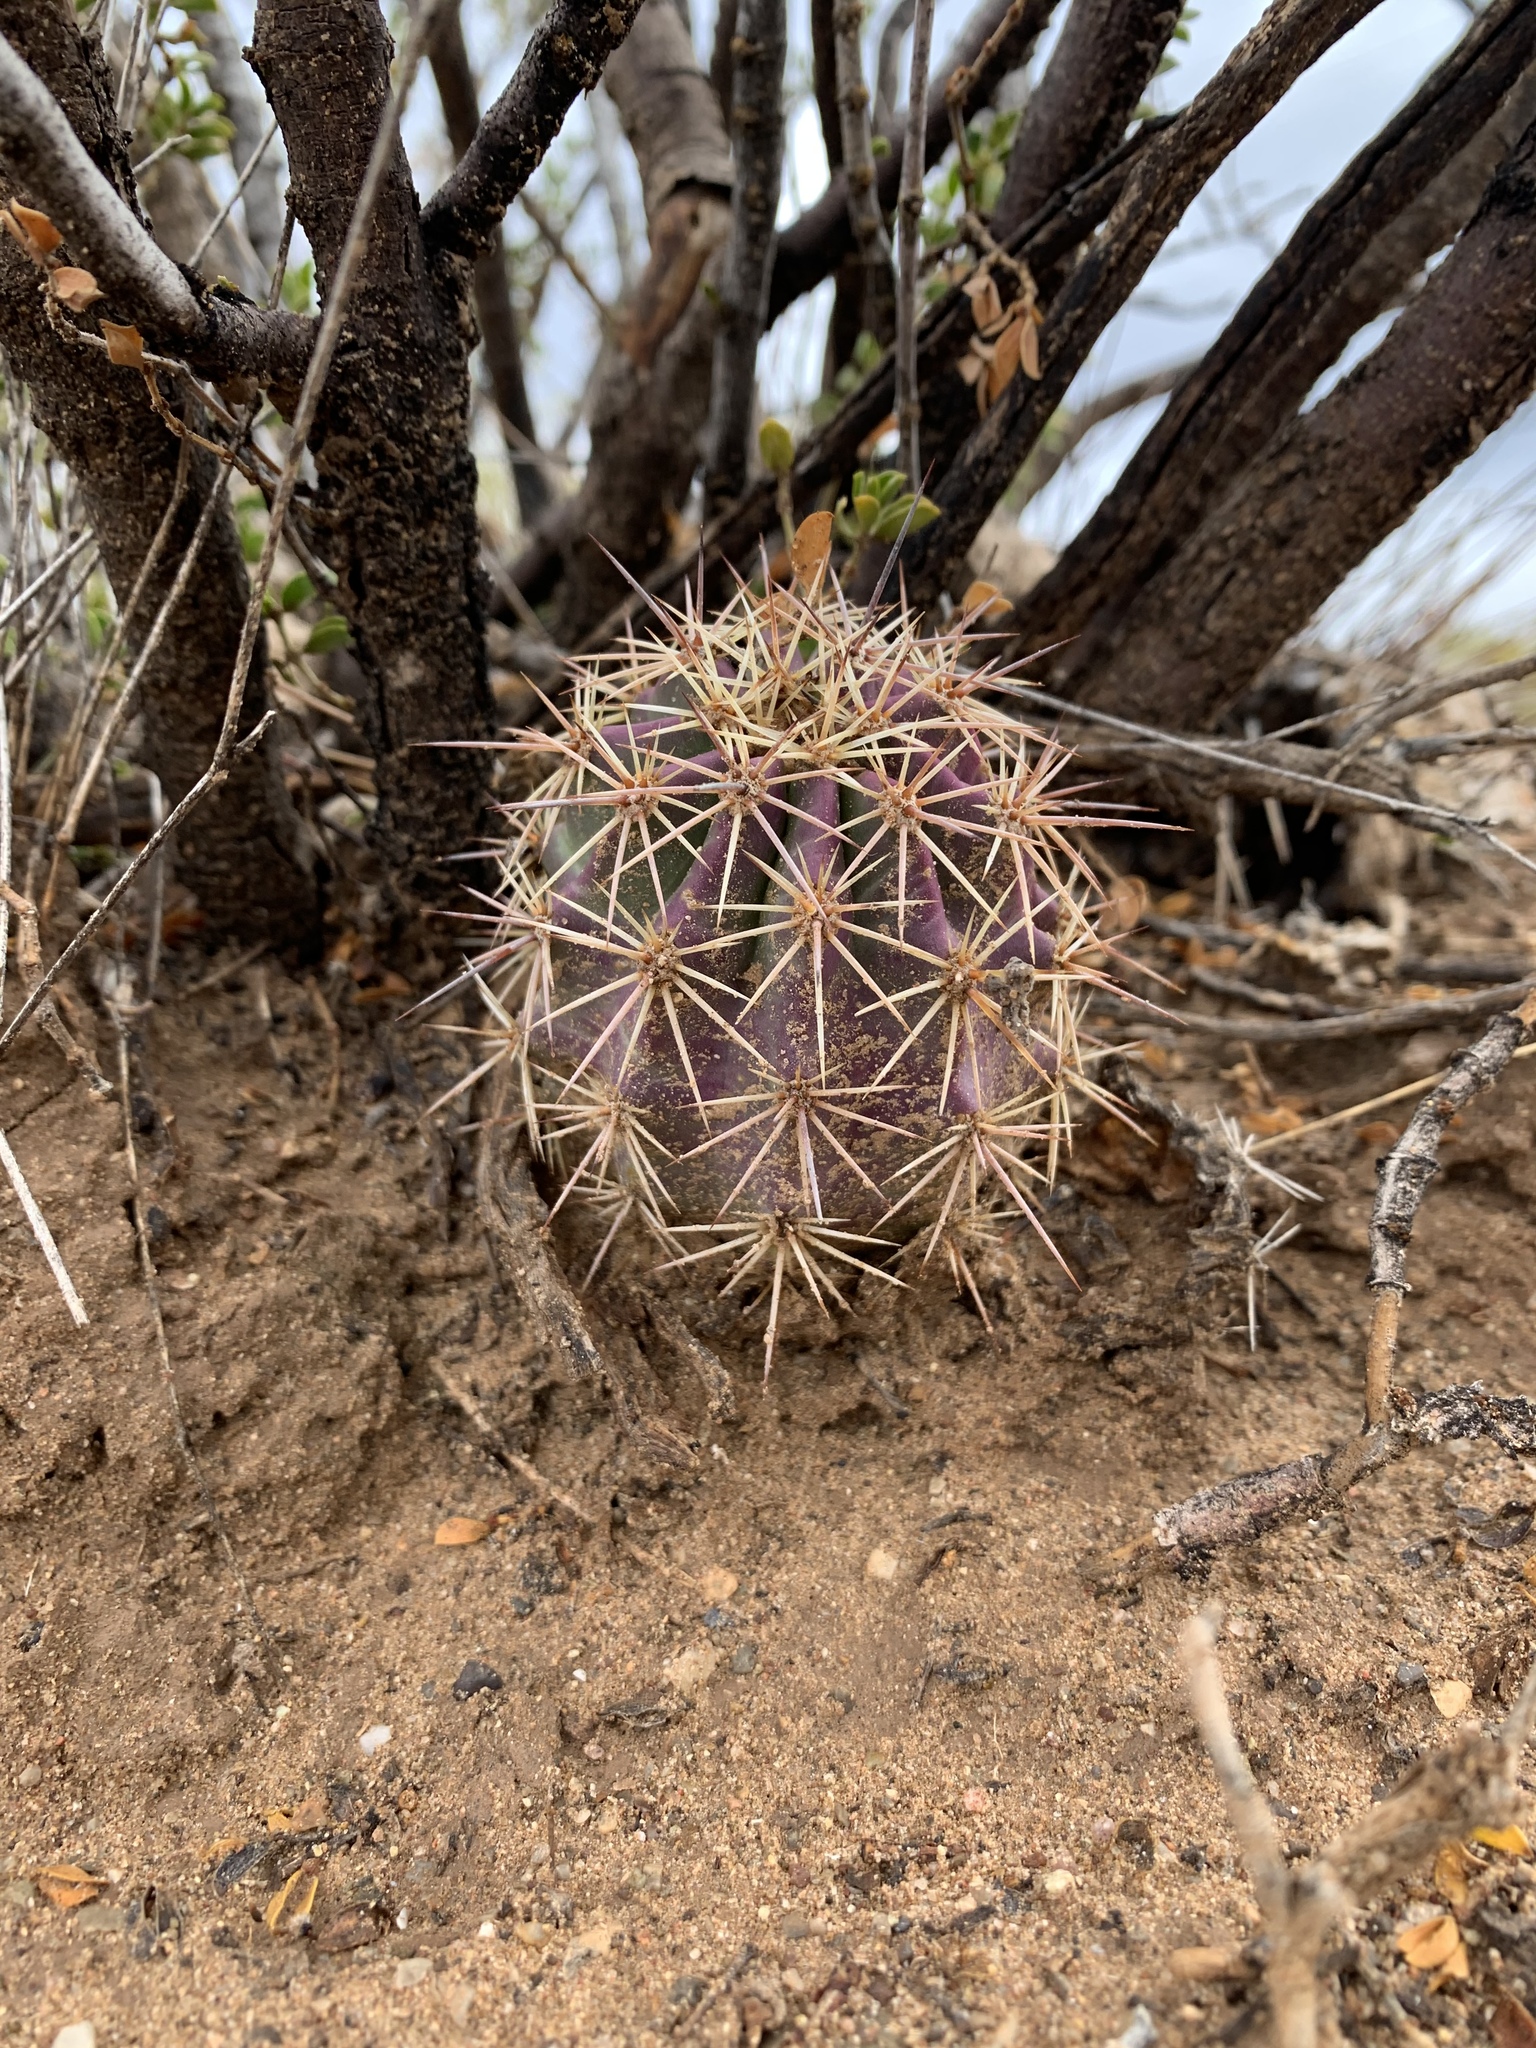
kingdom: Plantae
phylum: Tracheophyta
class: Magnoliopsida
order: Caryophyllales
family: Cactaceae
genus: Echinocereus
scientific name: Echinocereus coccineus
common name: Scarlet hedgehog cactus
